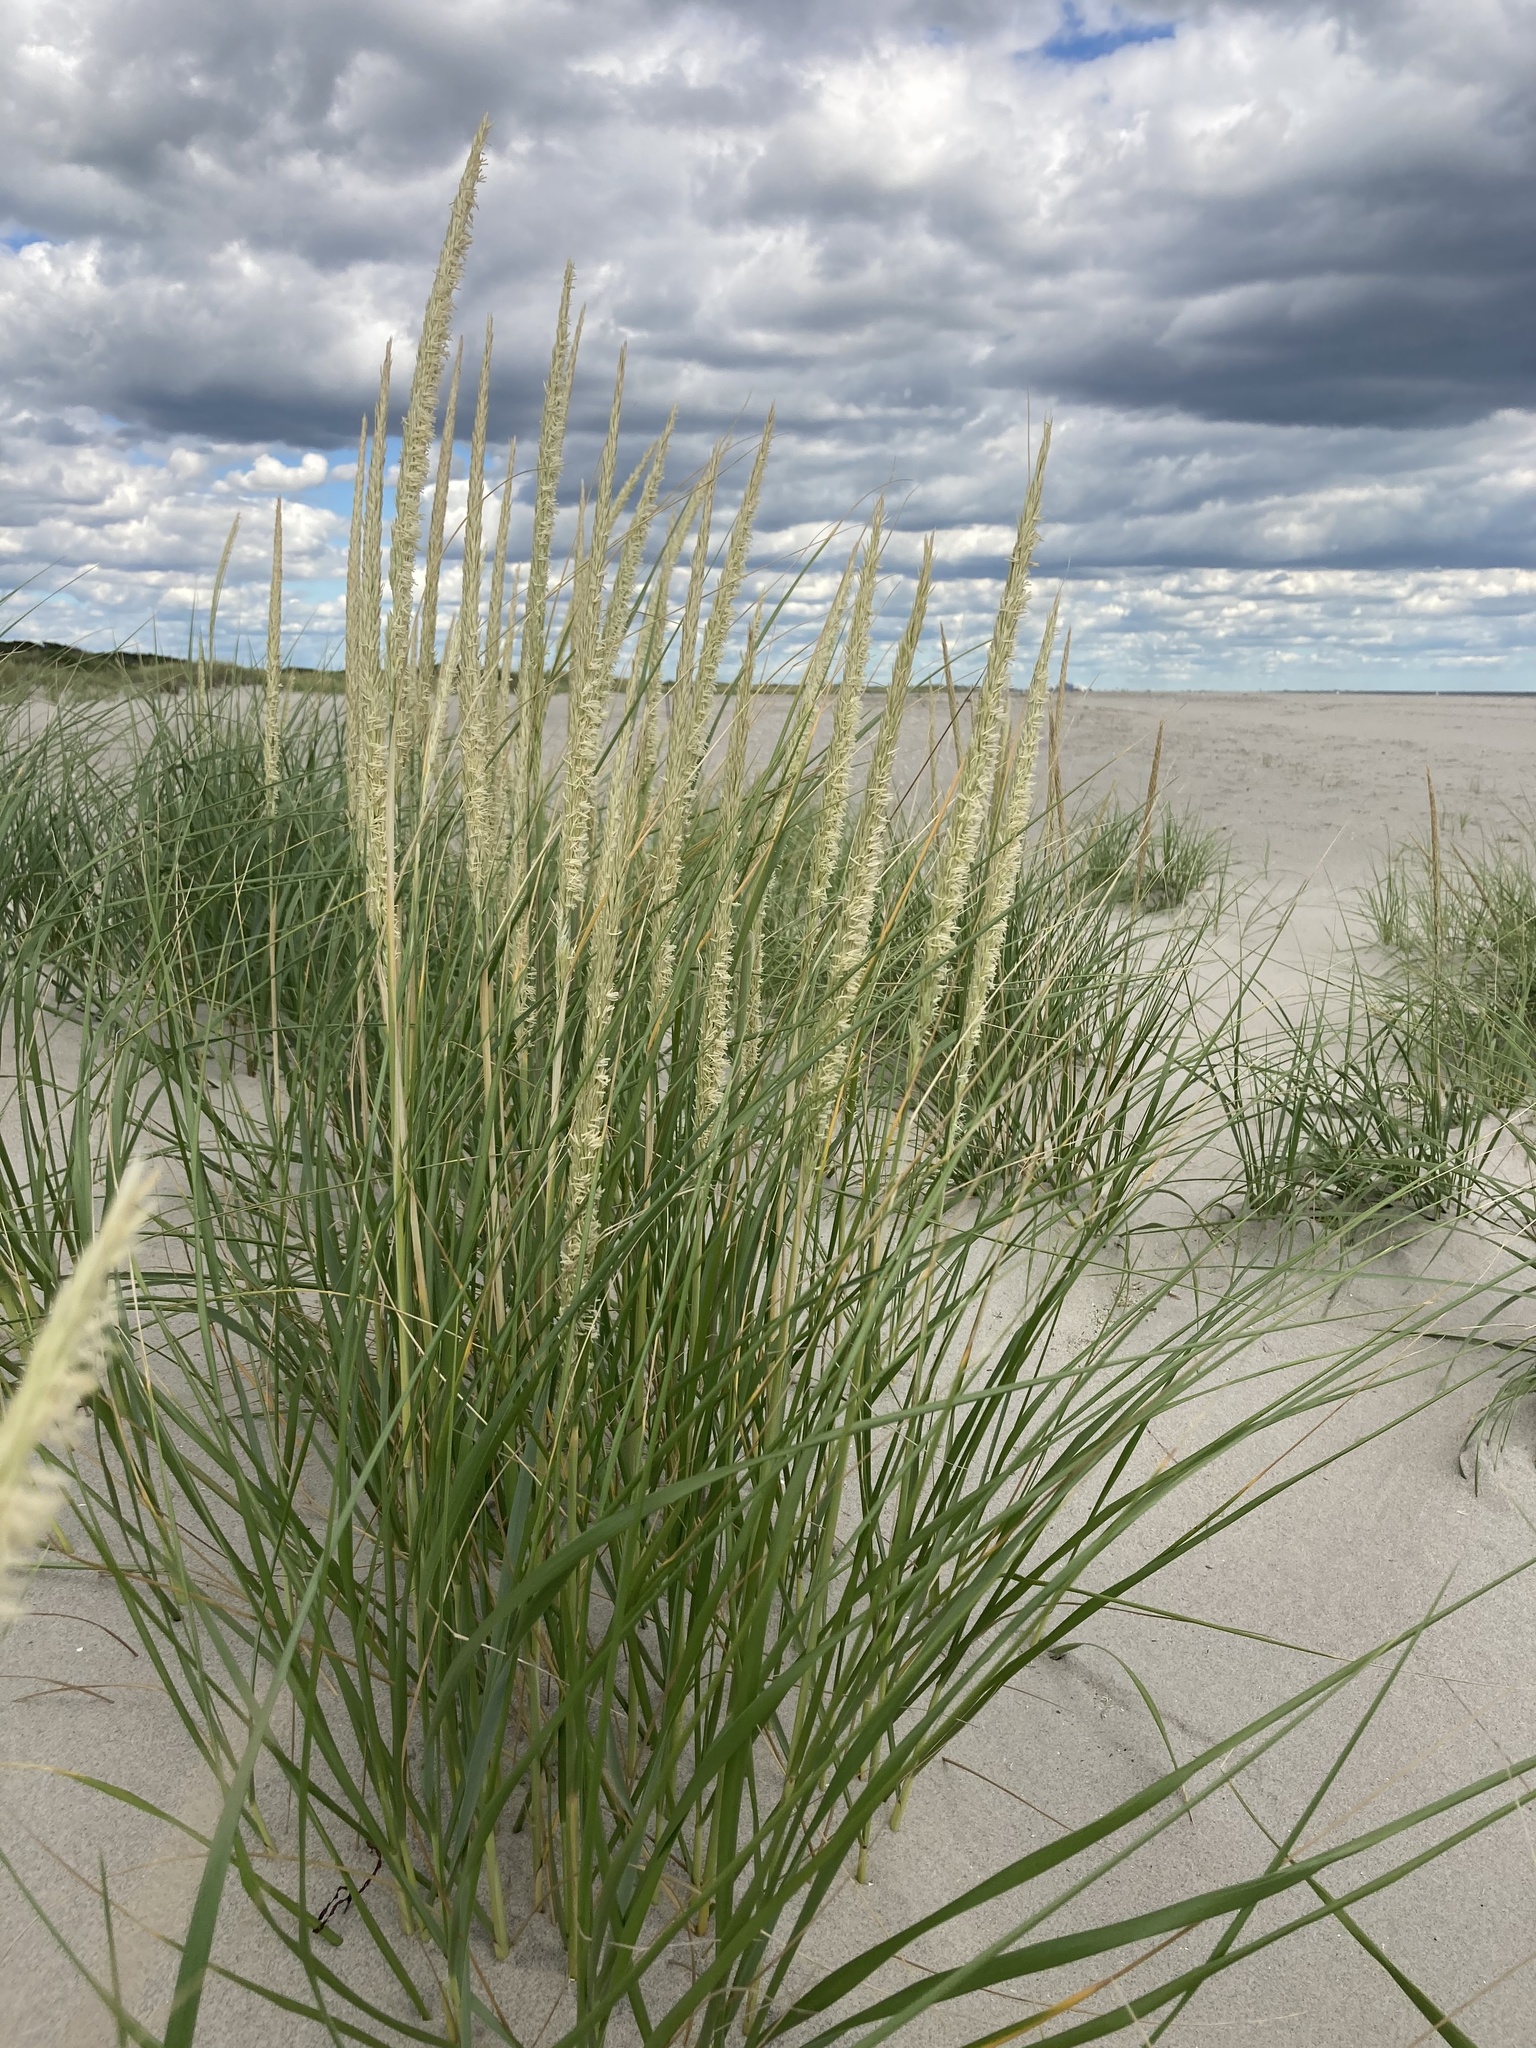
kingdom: Plantae
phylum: Tracheophyta
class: Liliopsida
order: Poales
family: Poaceae
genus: Calamagrostis
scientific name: Calamagrostis breviligulata
